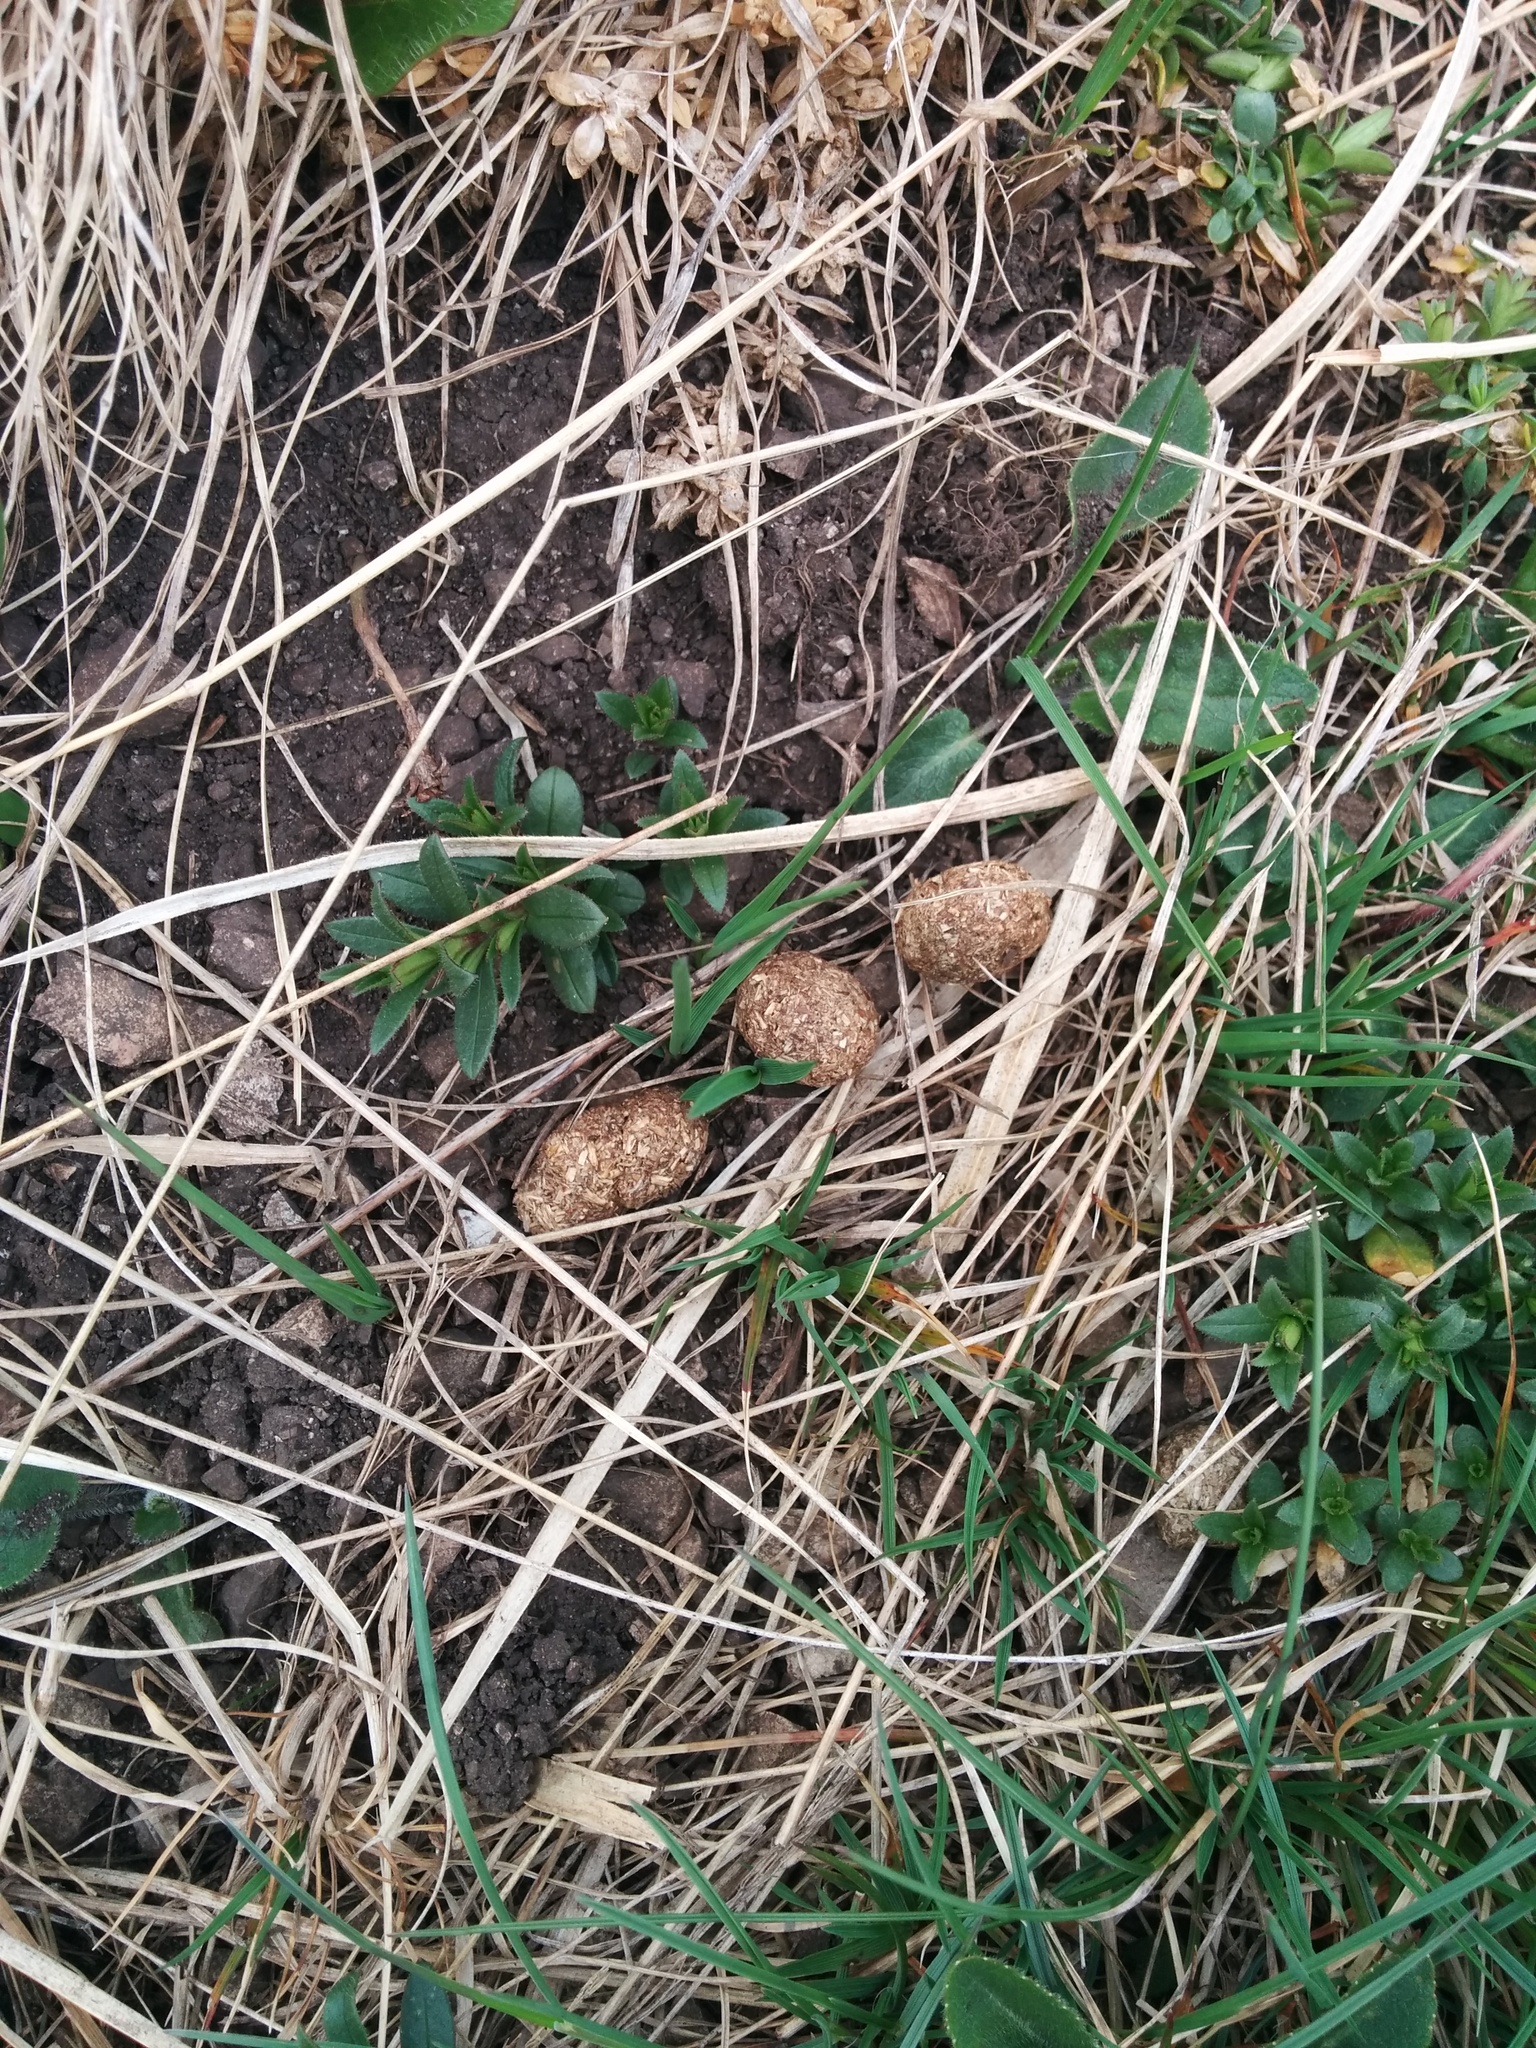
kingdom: Animalia
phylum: Chordata
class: Mammalia
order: Lagomorpha
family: Leporidae
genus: Lepus
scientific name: Lepus europaeus
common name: European hare
